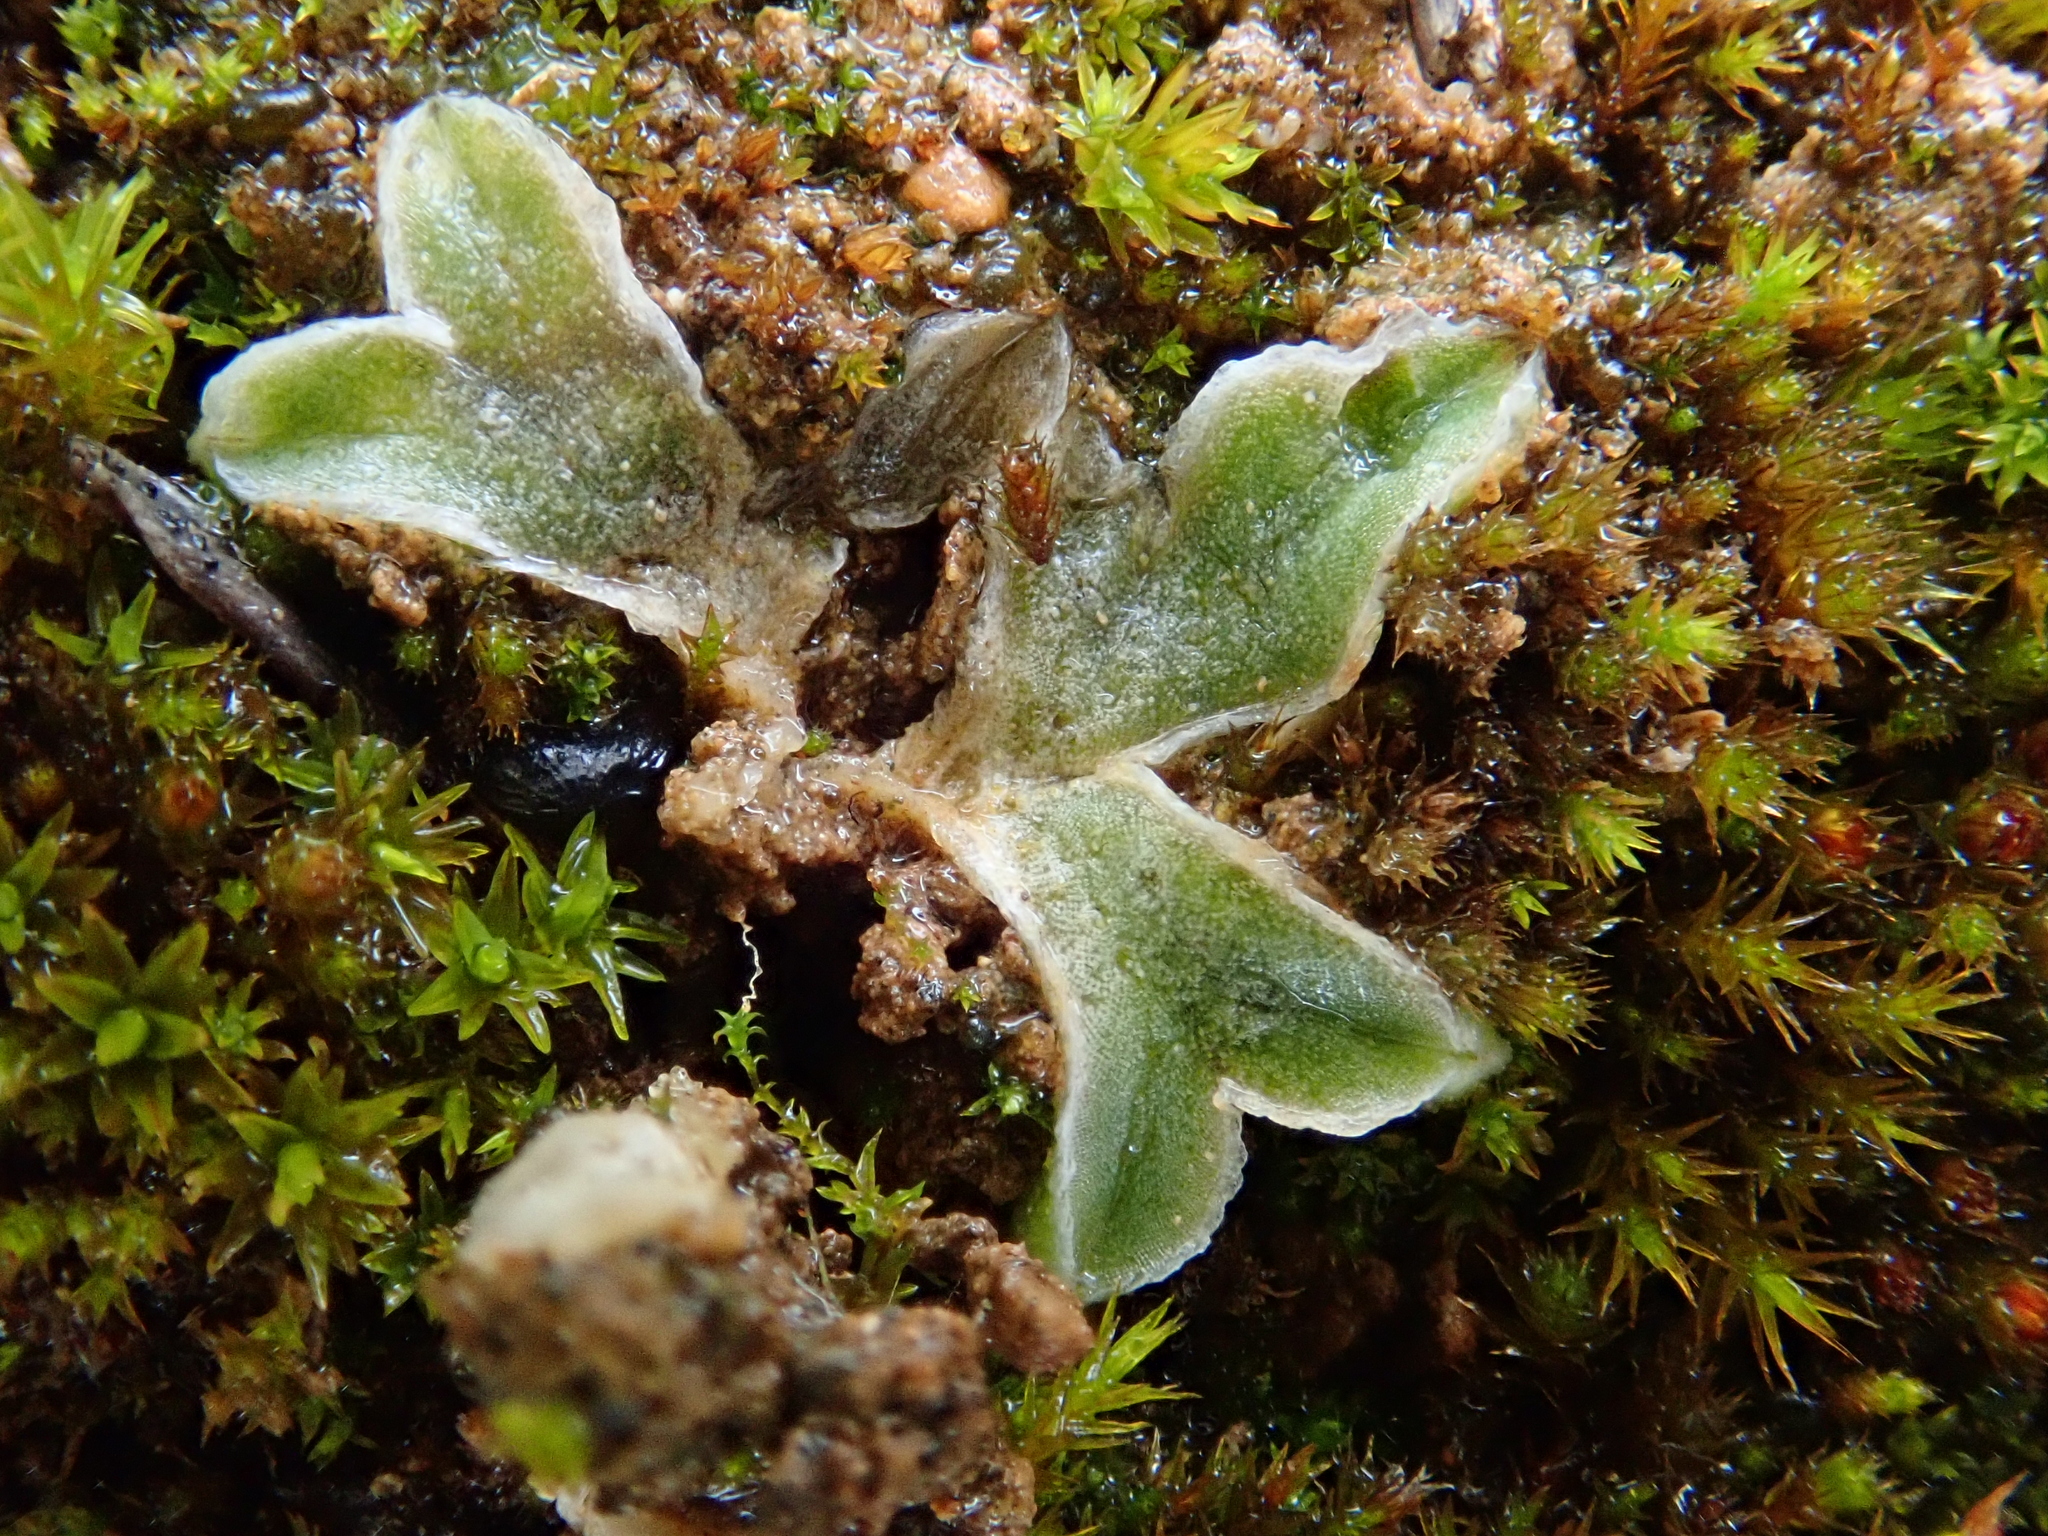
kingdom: Plantae
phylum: Marchantiophyta
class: Marchantiopsida
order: Marchantiales
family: Ricciaceae
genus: Riccia
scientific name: Riccia lamellosa
